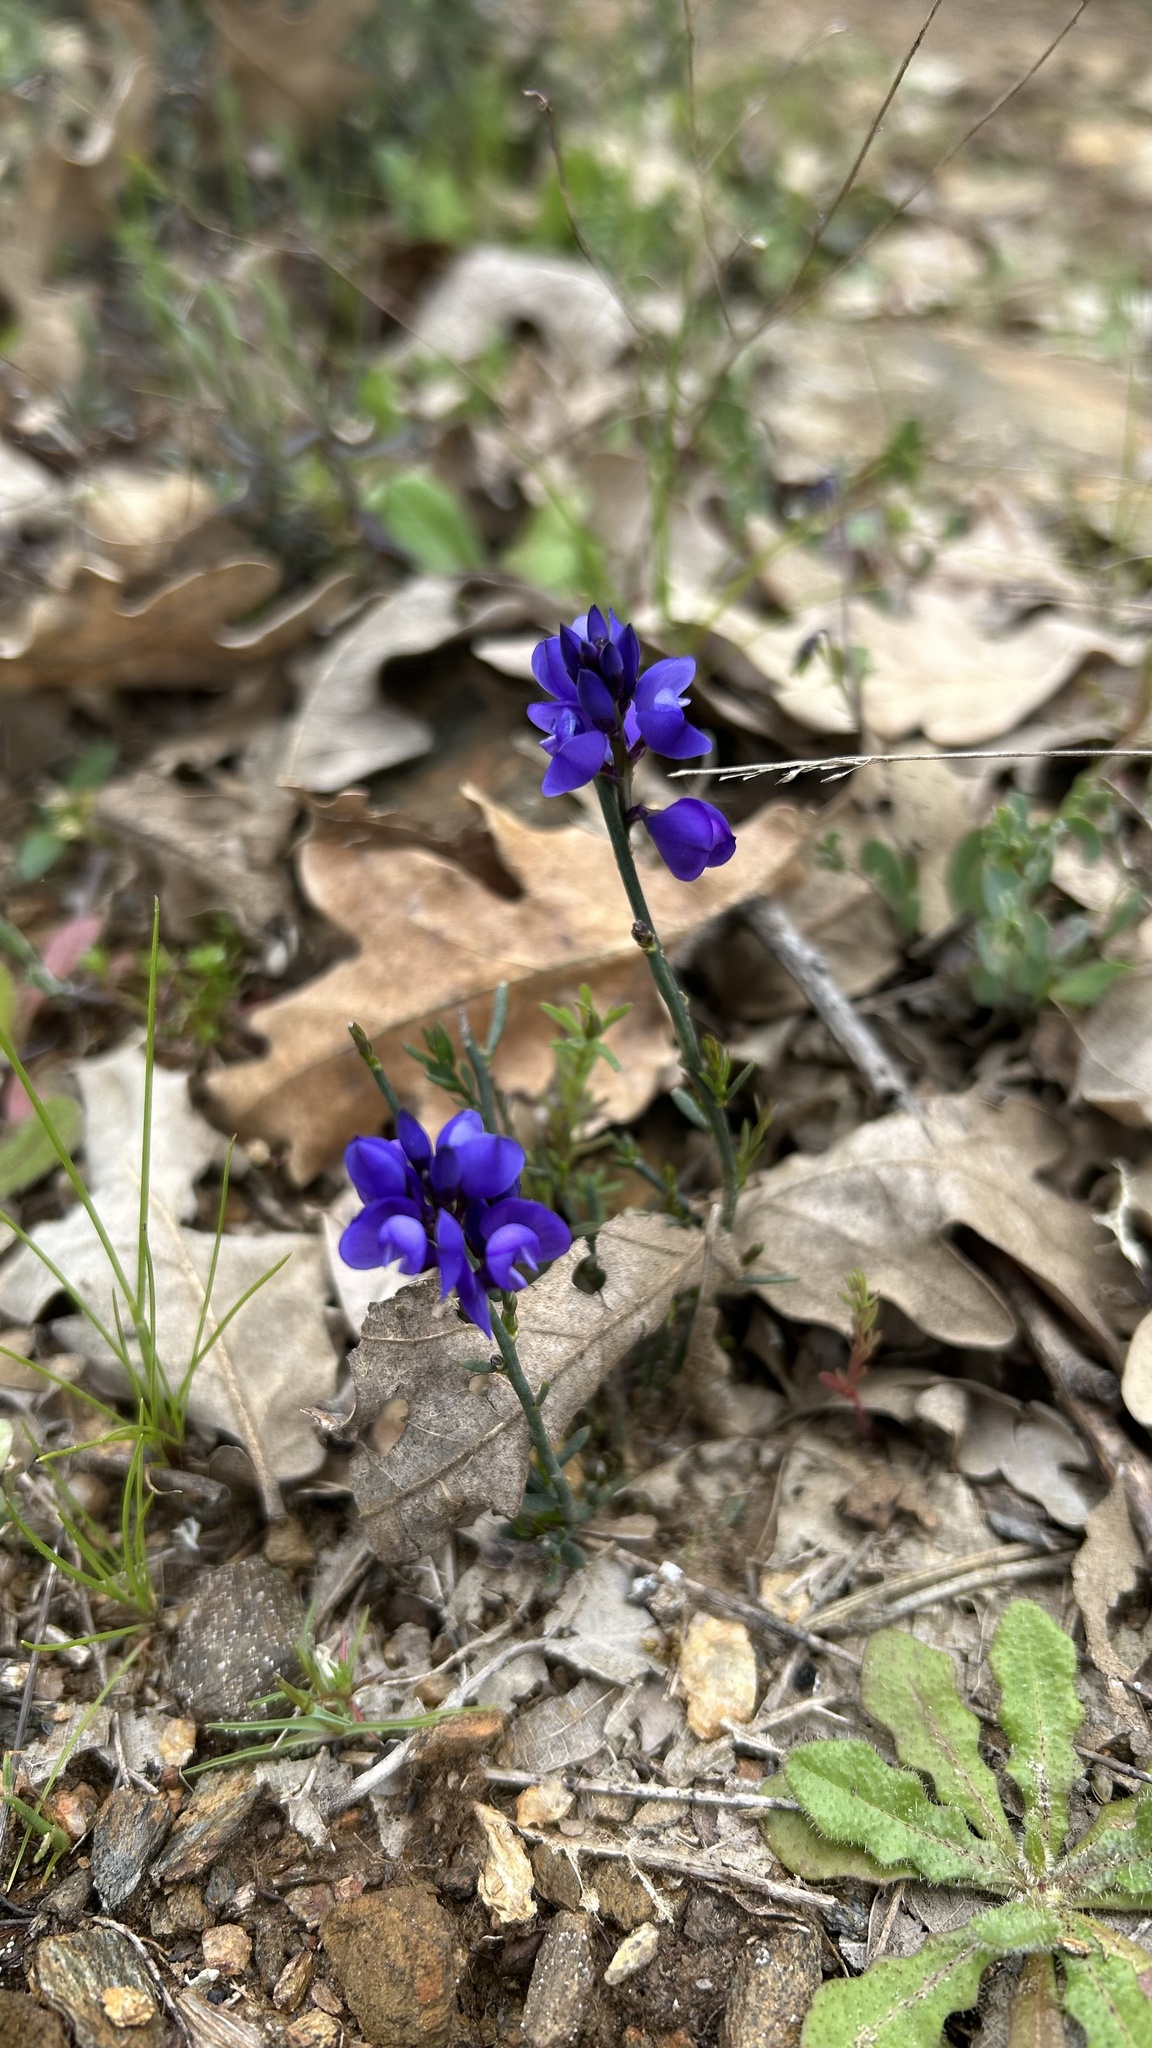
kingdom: Plantae
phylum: Tracheophyta
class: Magnoliopsida
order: Fabales
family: Polygalaceae
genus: Polygala
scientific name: Polygala microphylla
